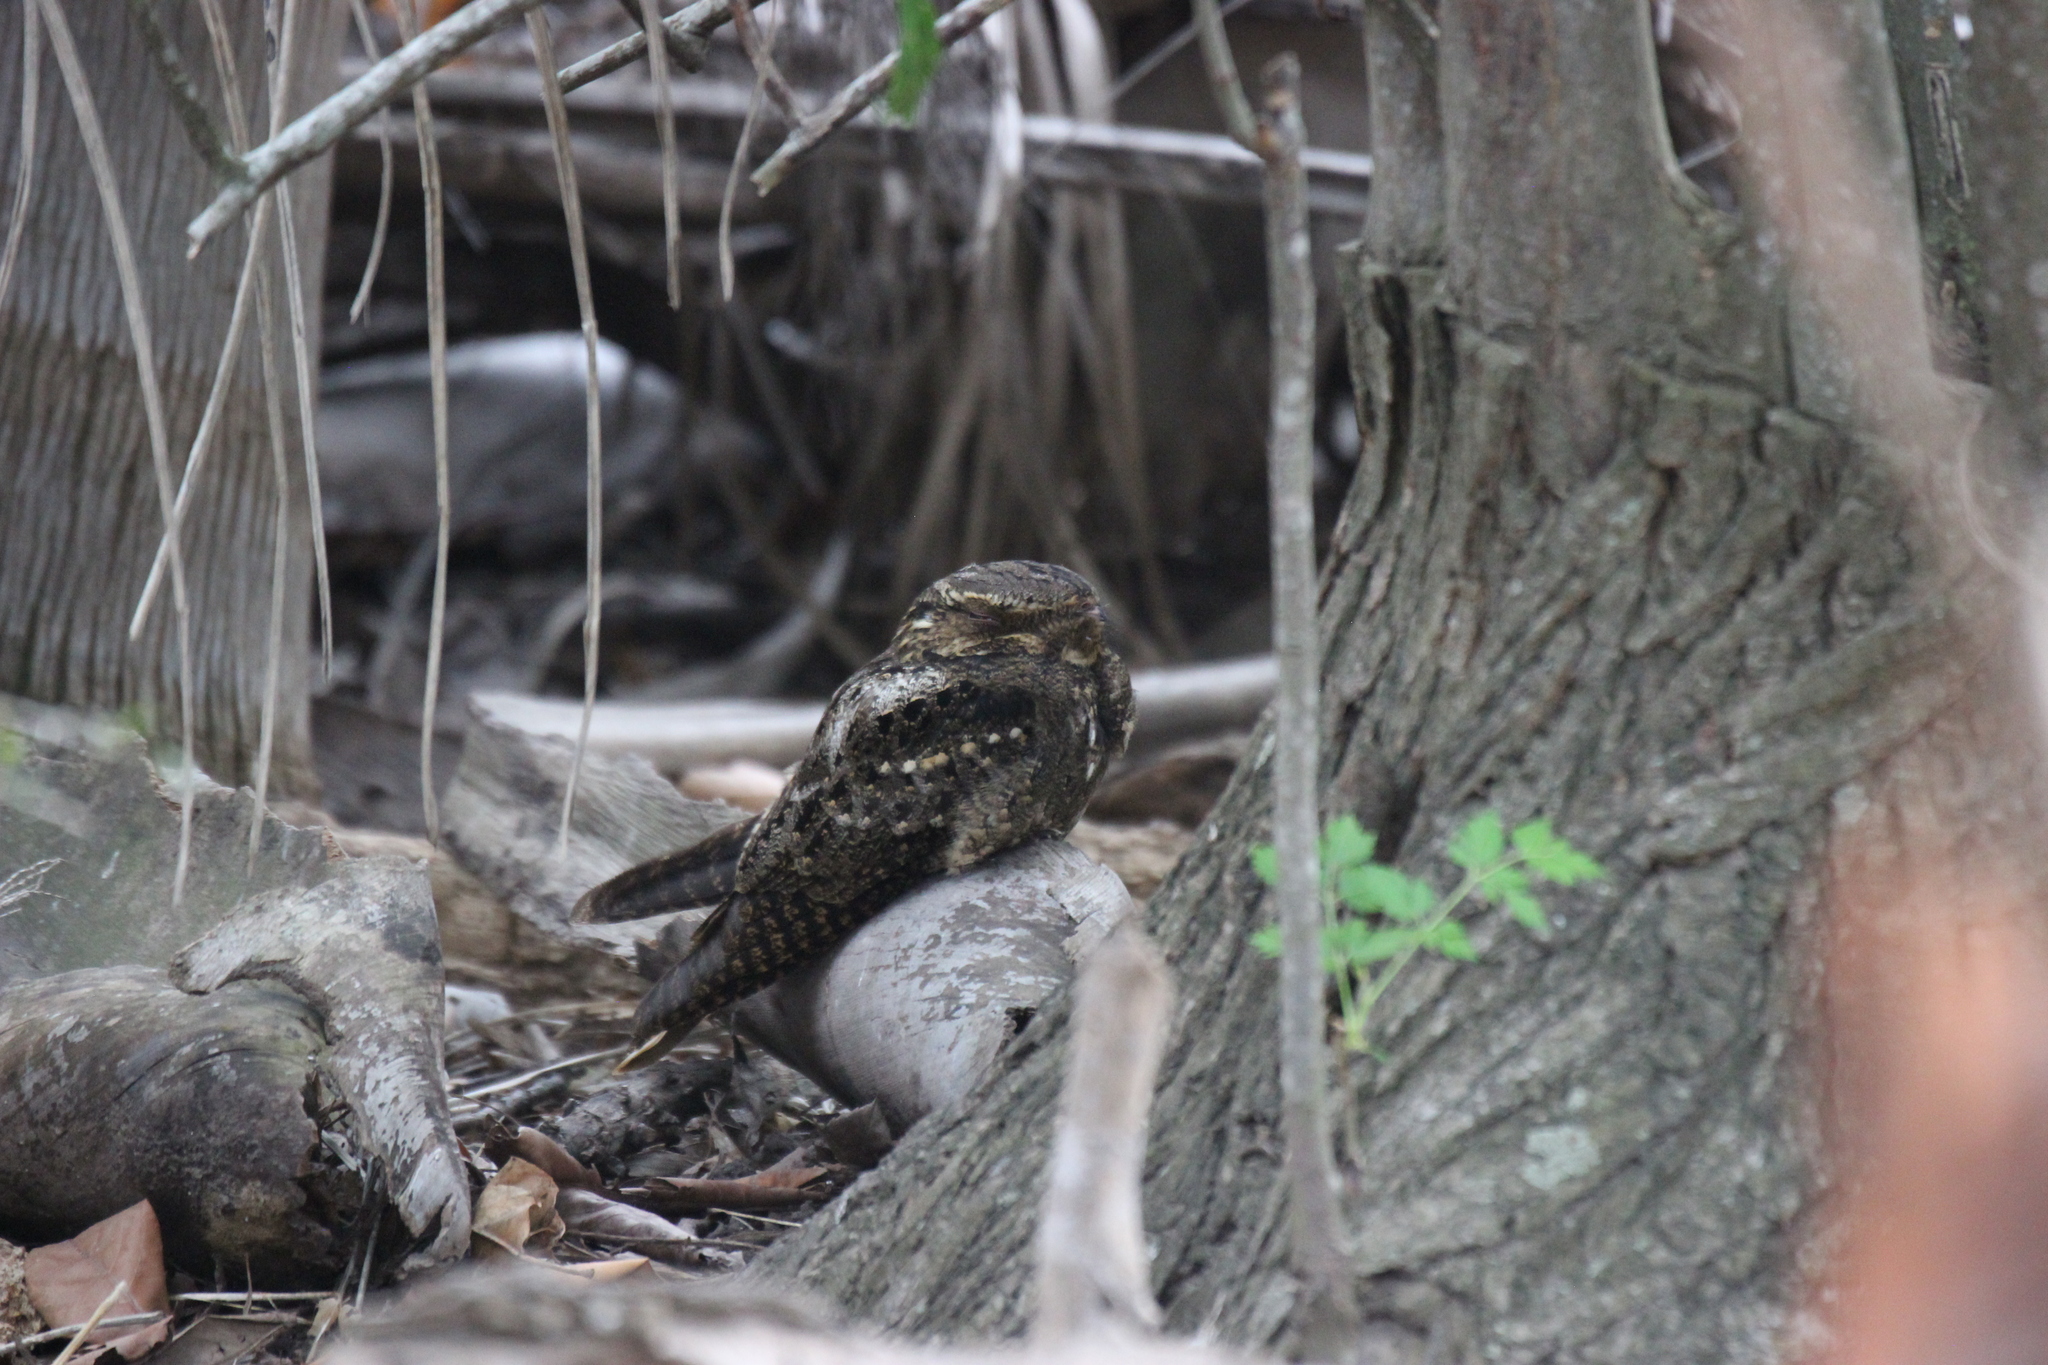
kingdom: Animalia
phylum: Chordata
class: Aves
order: Caprimulgiformes
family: Caprimulgidae
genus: Antrostomus
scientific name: Antrostomus vociferus
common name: Eastern whip-poor-will
